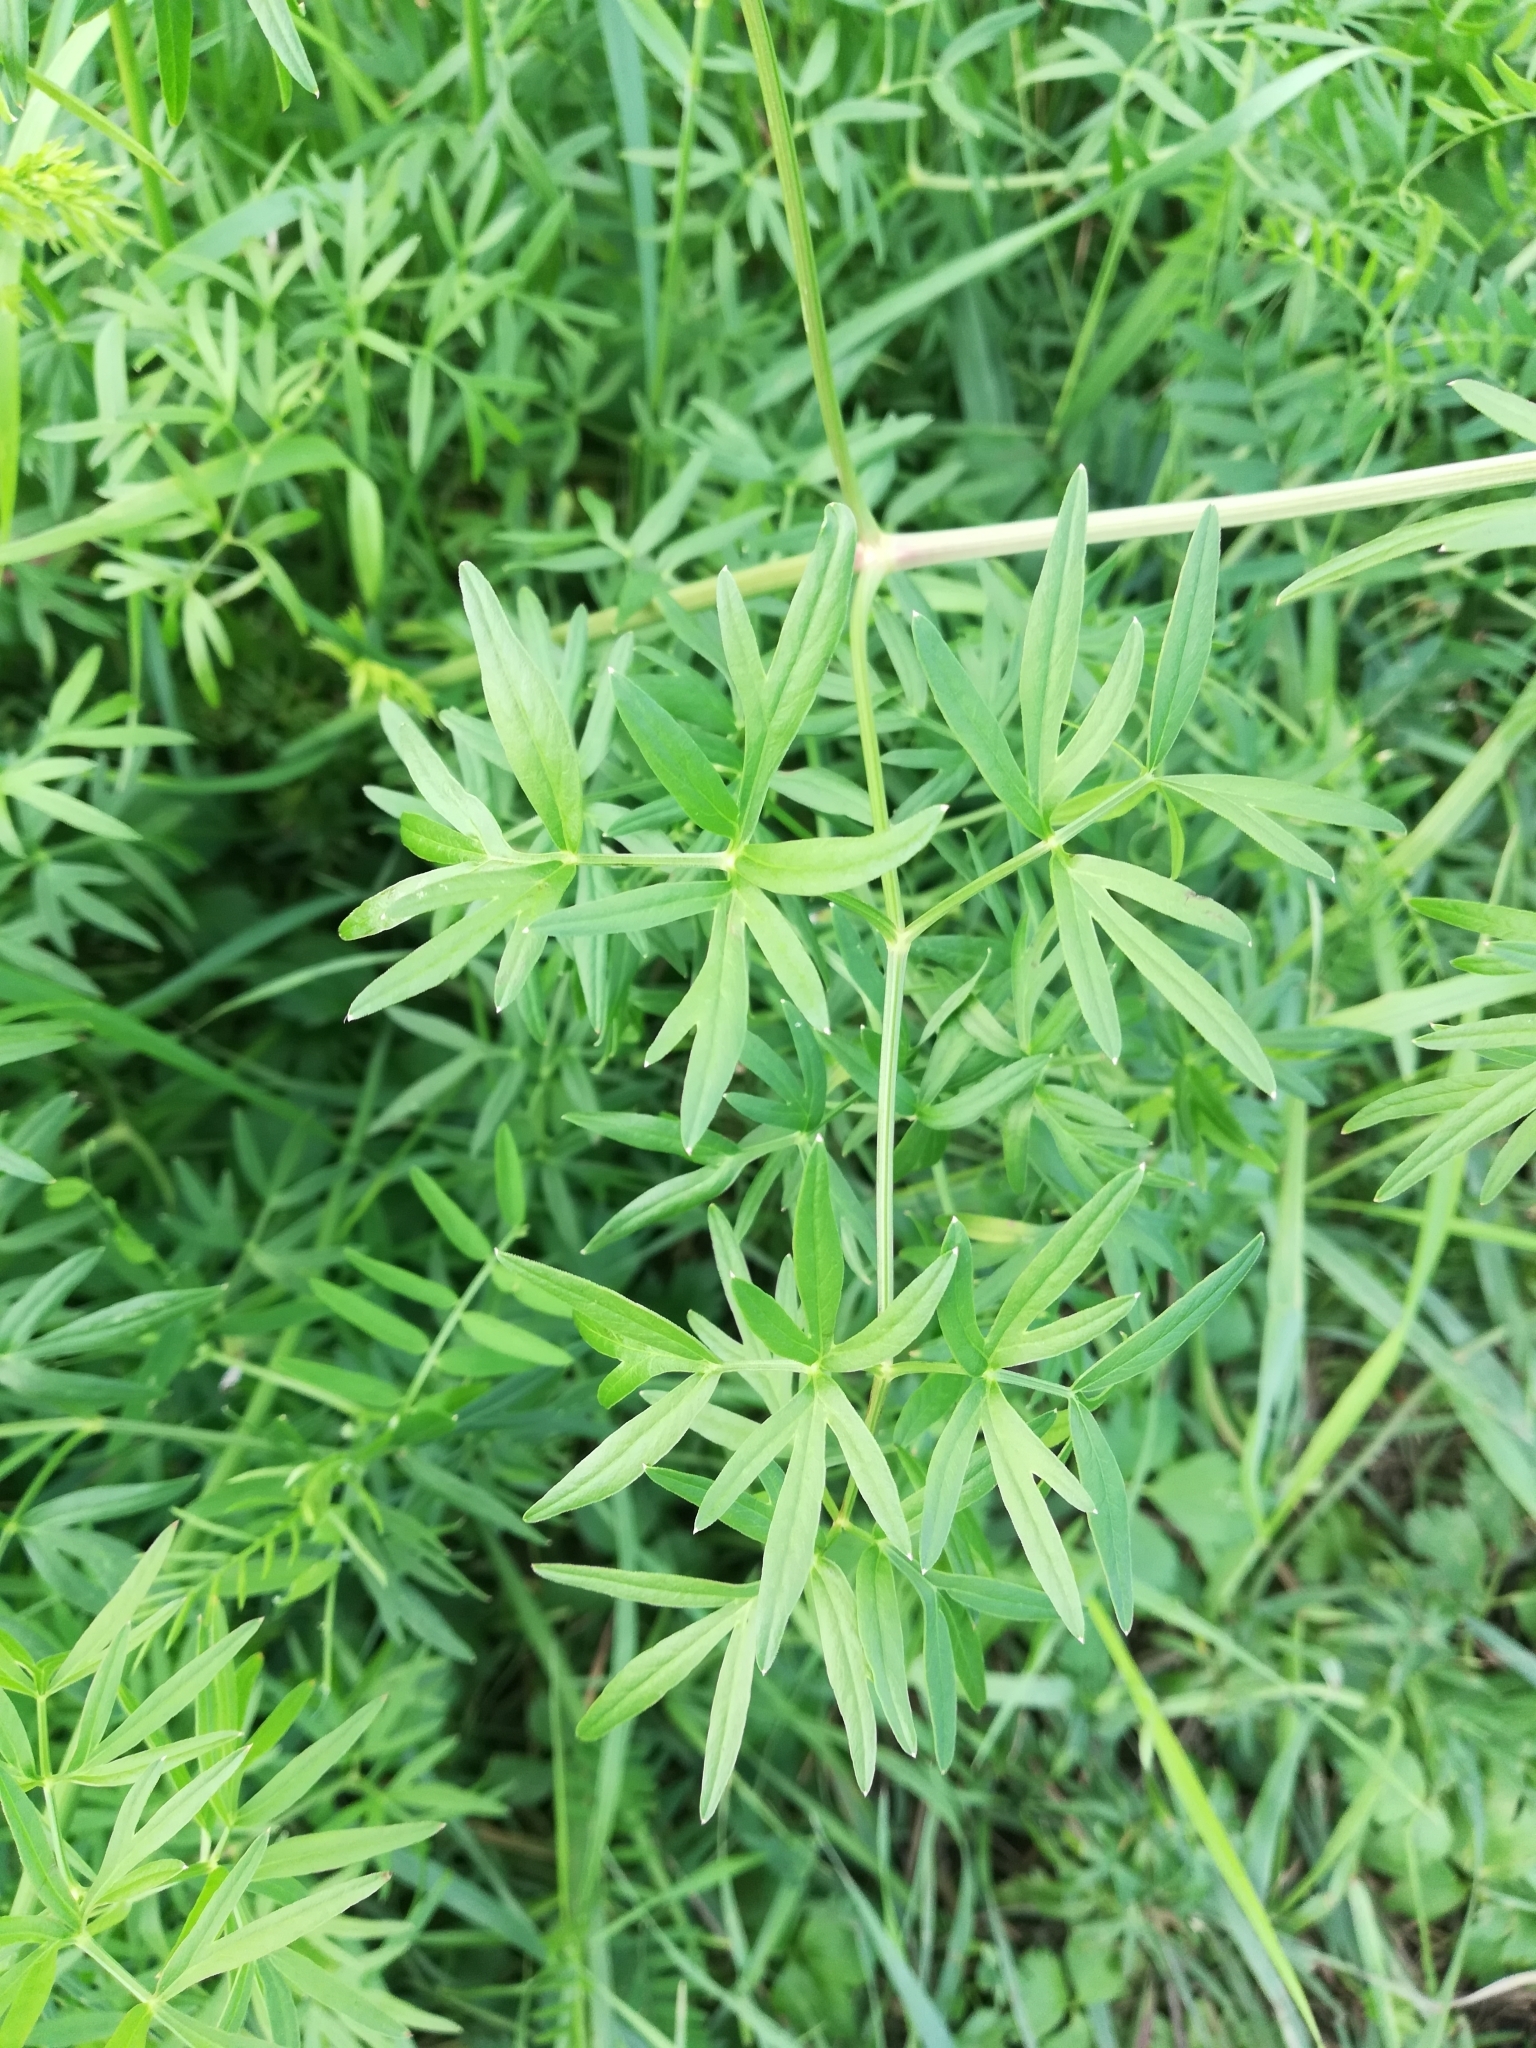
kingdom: Plantae
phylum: Tracheophyta
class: Magnoliopsida
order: Apiales
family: Apiaceae
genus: Cenolophium
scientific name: Cenolophium fischeri
